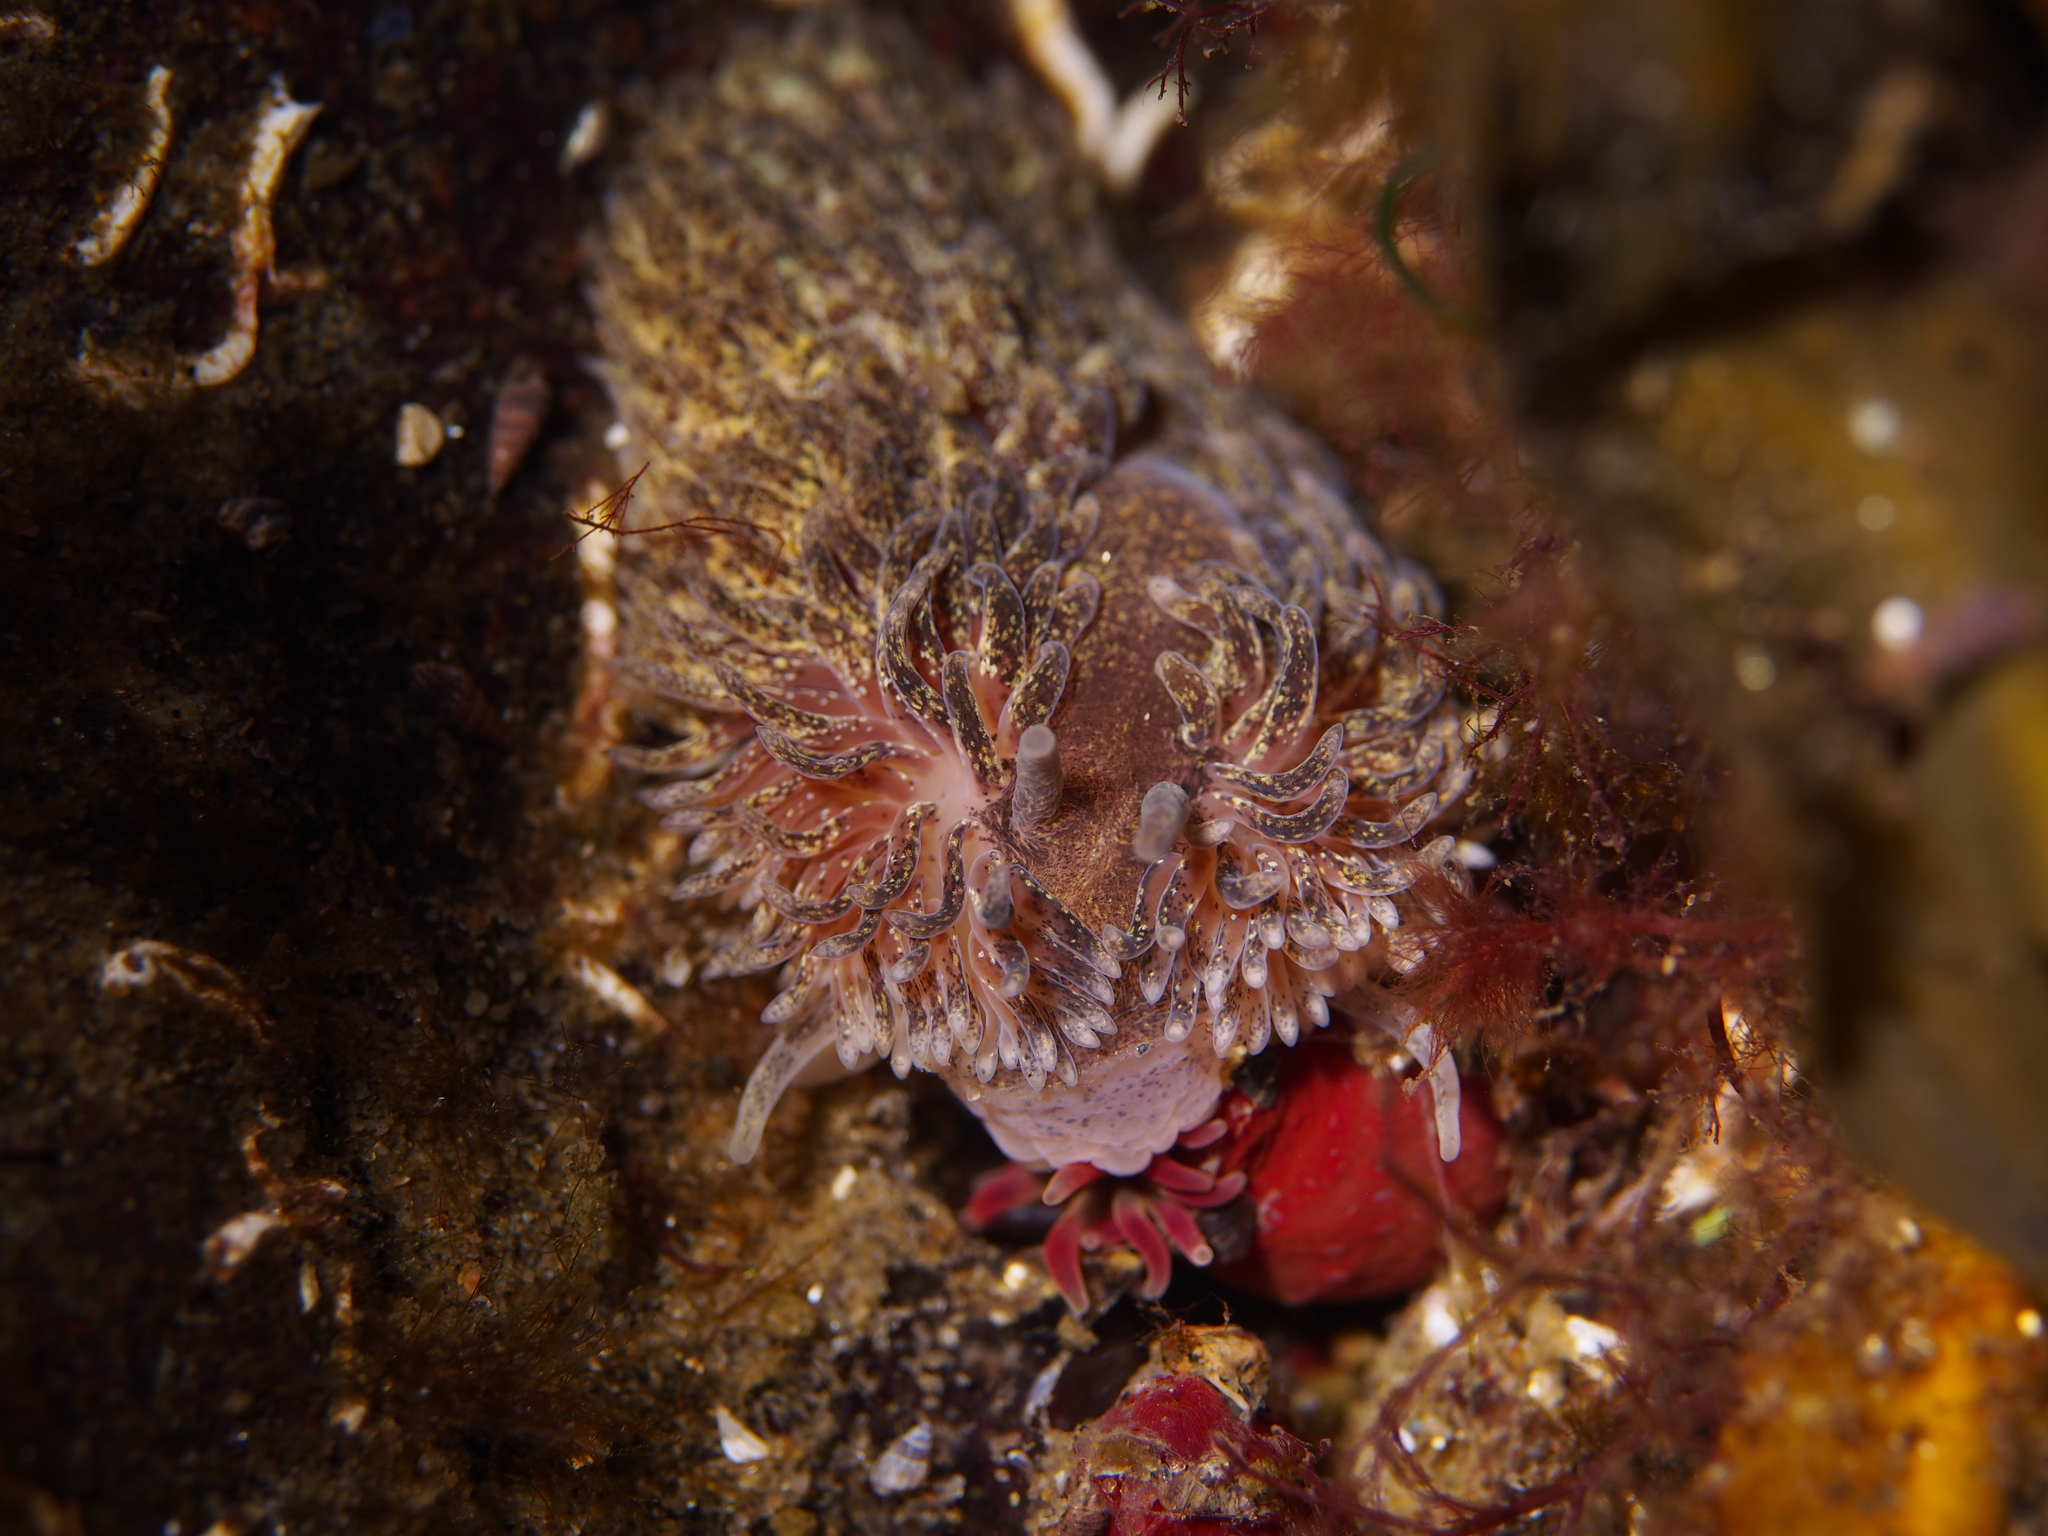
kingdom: Animalia
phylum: Mollusca
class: Gastropoda
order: Nudibranchia
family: Aeolidiidae
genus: Aeolidia
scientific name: Aeolidia papillosa
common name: Common grey sea slug
